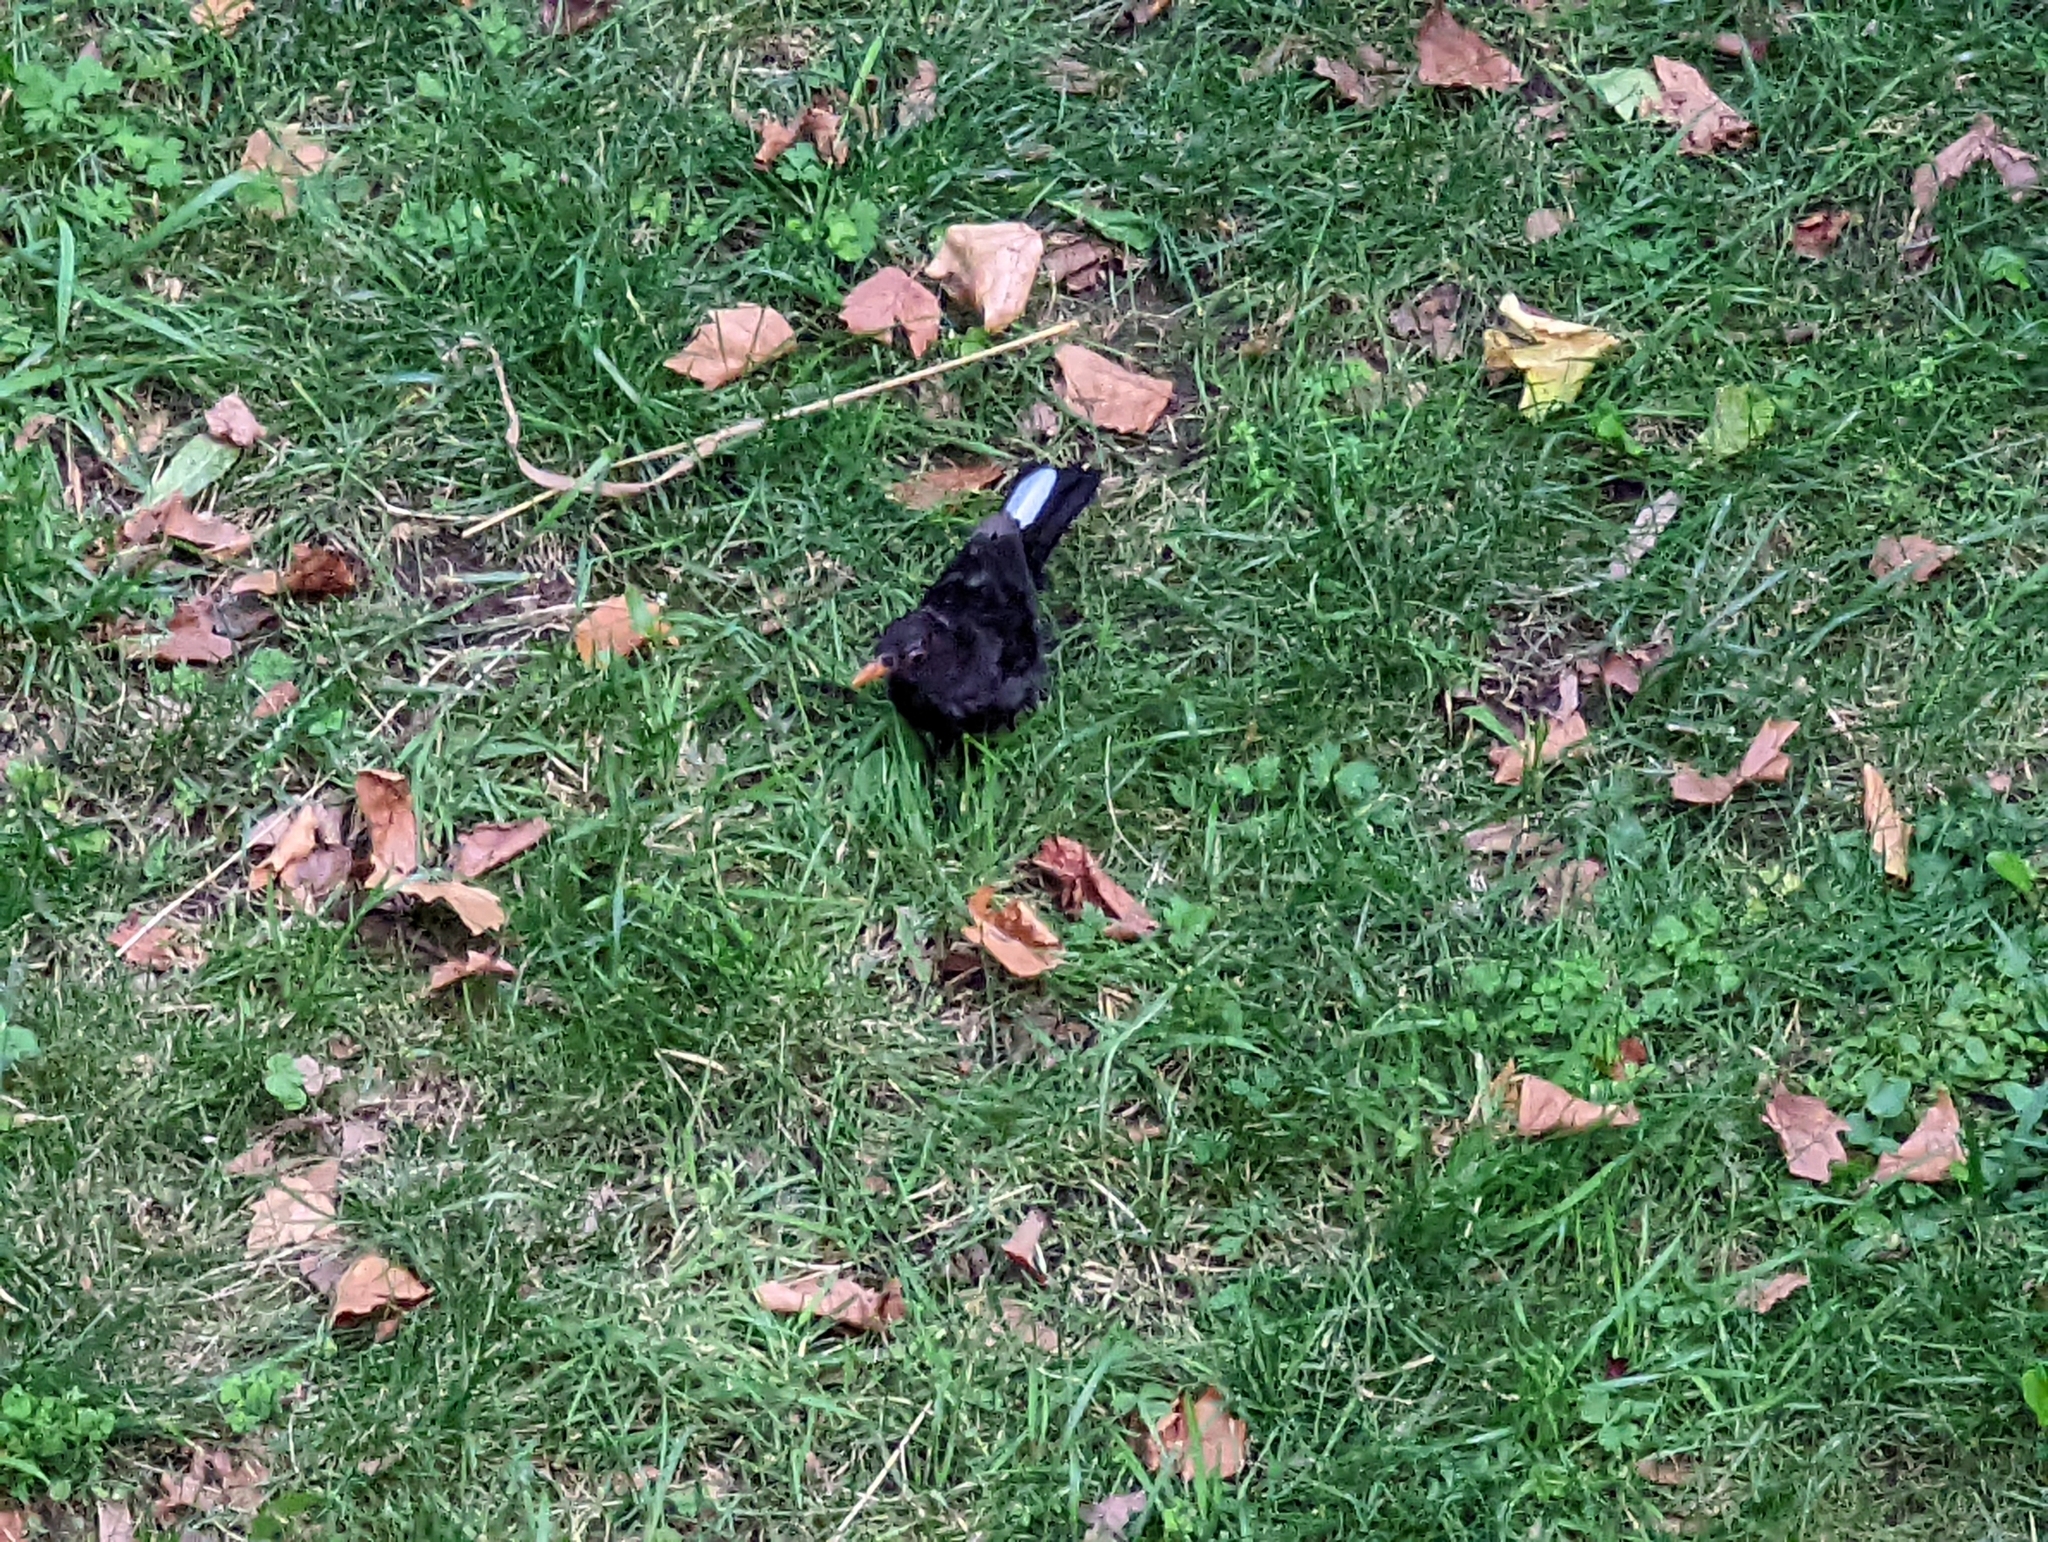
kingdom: Animalia
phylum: Chordata
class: Aves
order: Passeriformes
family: Turdidae
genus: Turdus
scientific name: Turdus merula
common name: Common blackbird
